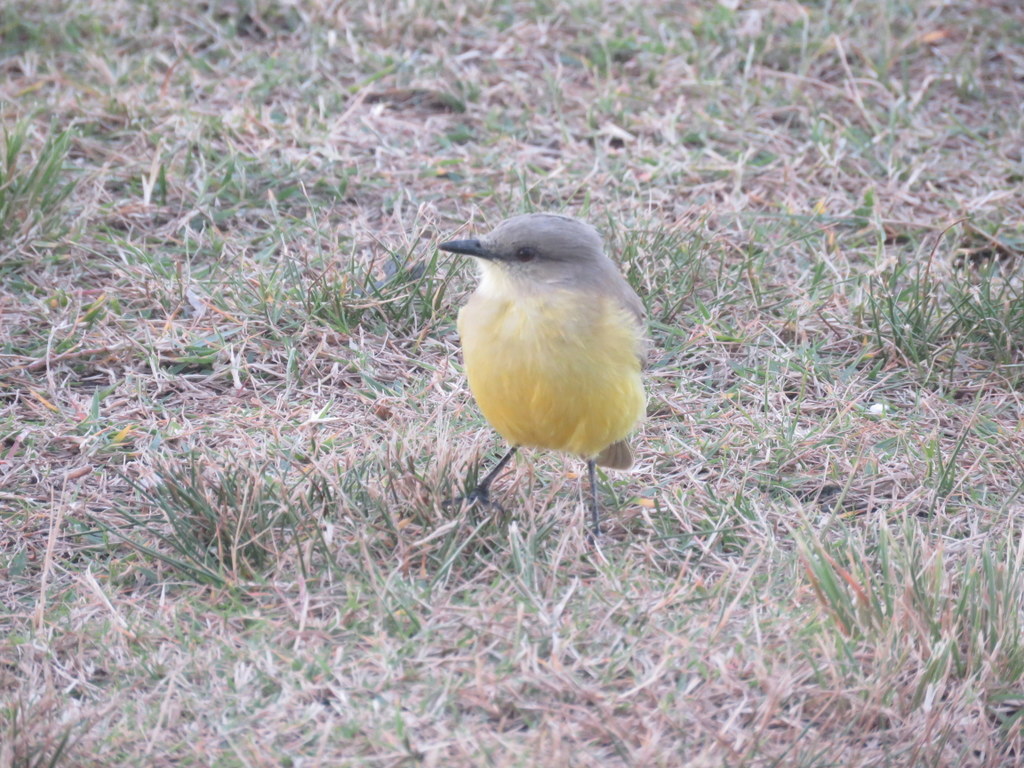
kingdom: Animalia
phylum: Chordata
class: Aves
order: Passeriformes
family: Tyrannidae
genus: Machetornis
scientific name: Machetornis rixosa
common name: Cattle tyrant
